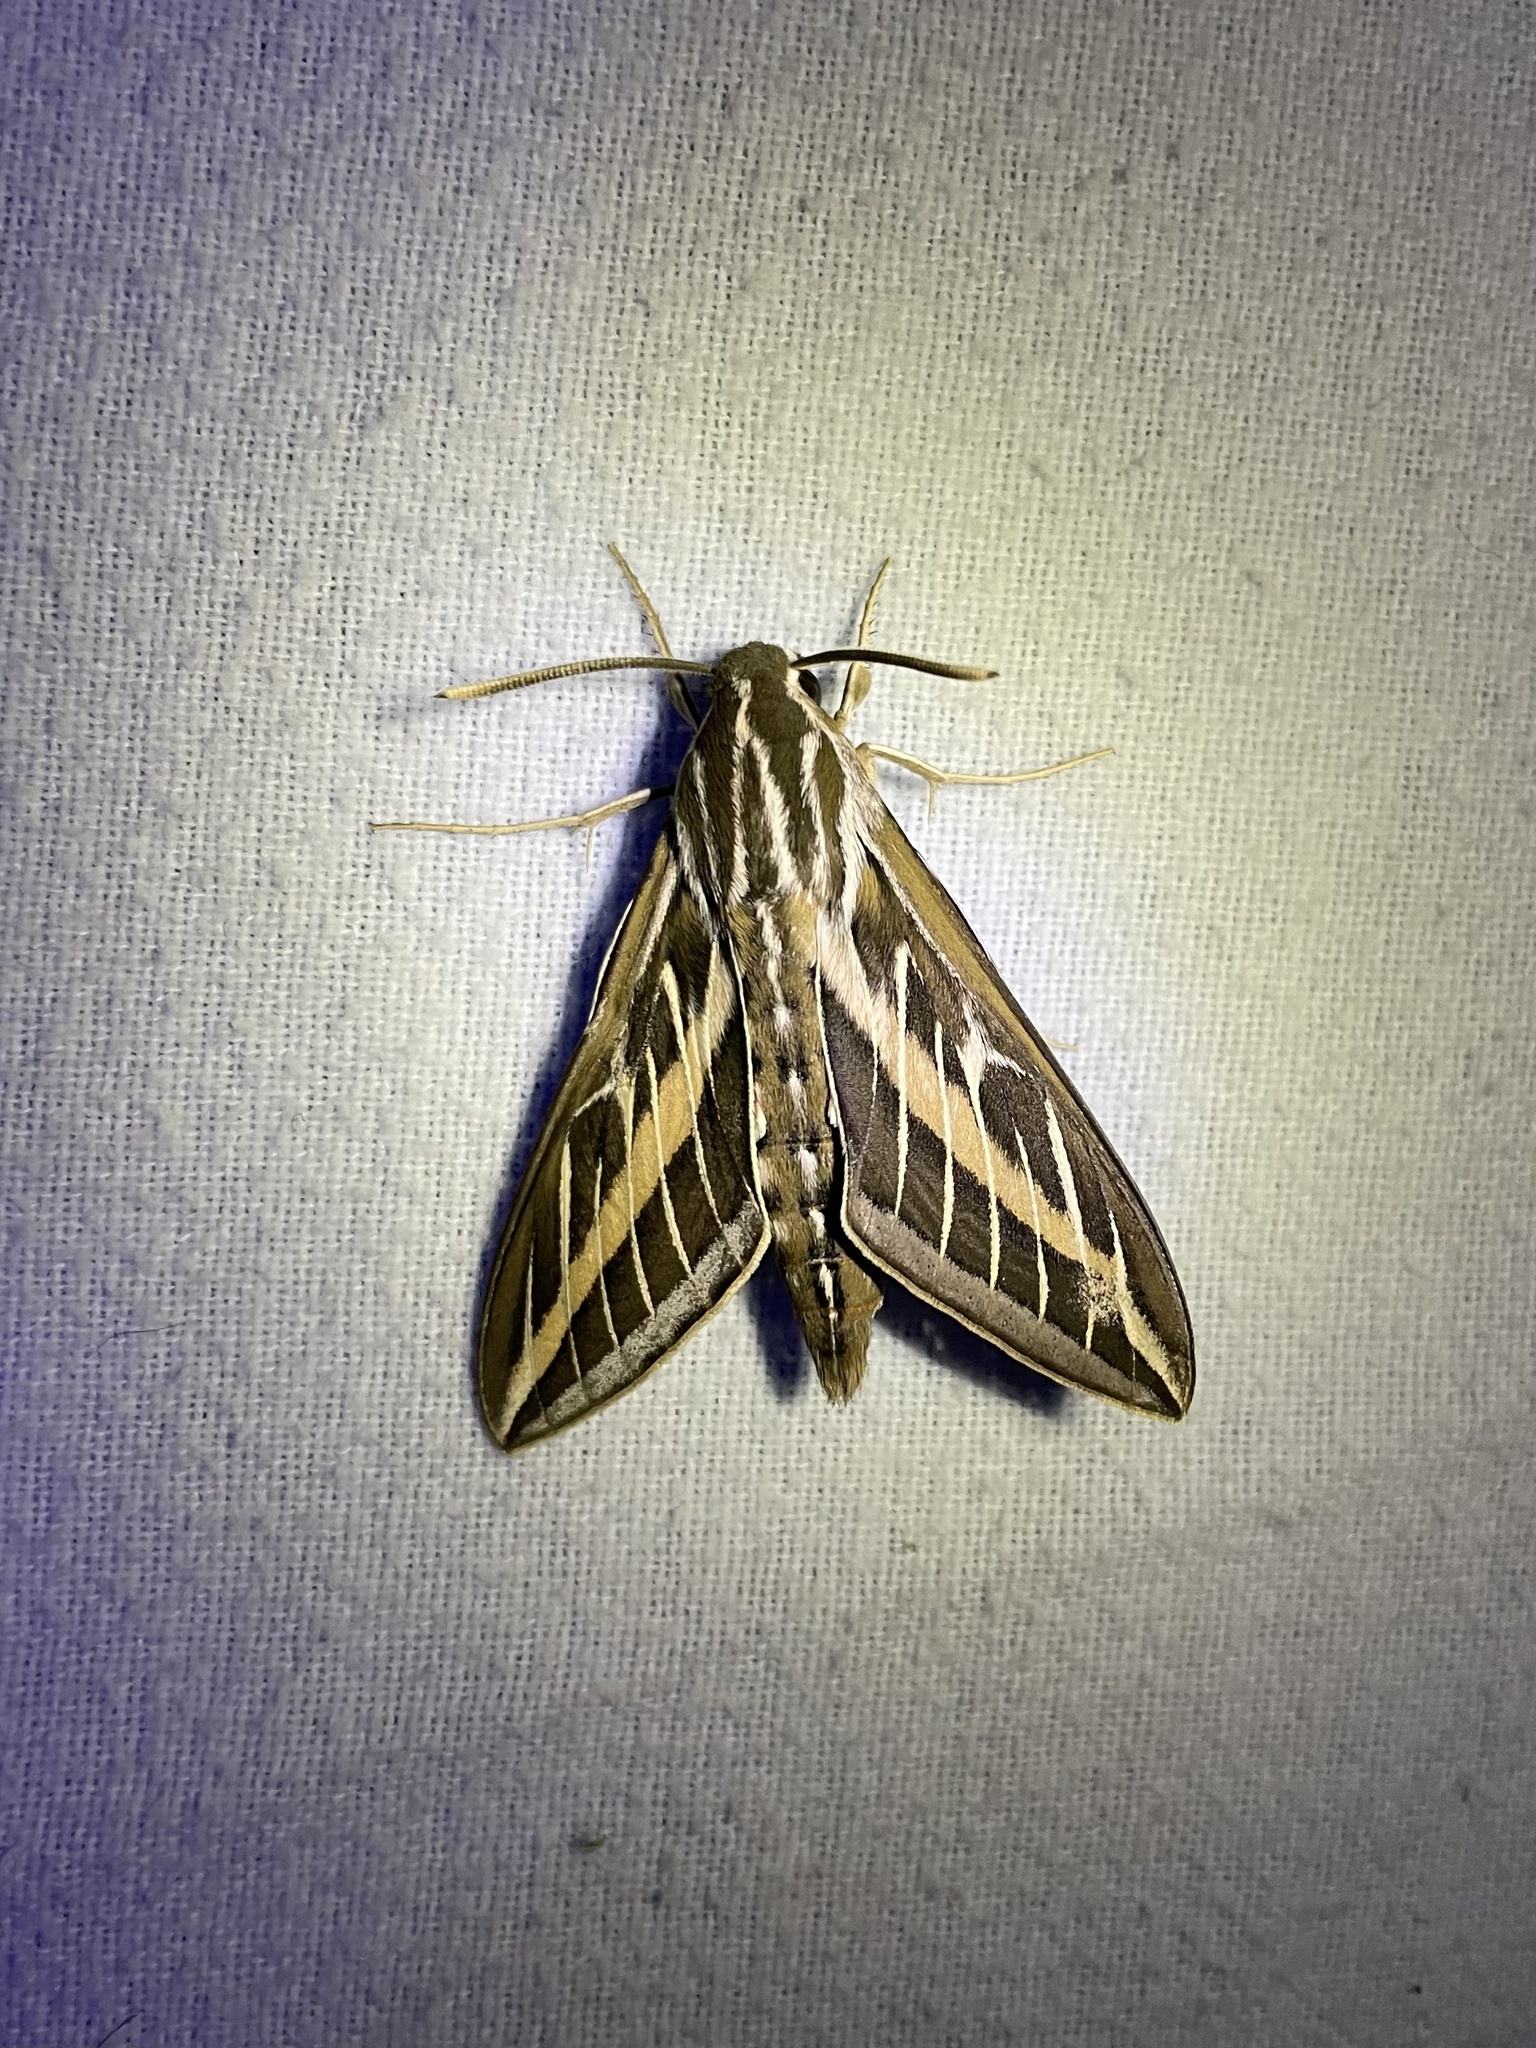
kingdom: Animalia
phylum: Arthropoda
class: Insecta
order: Lepidoptera
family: Sphingidae
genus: Hyles
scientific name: Hyles lineata
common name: White-lined sphinx
